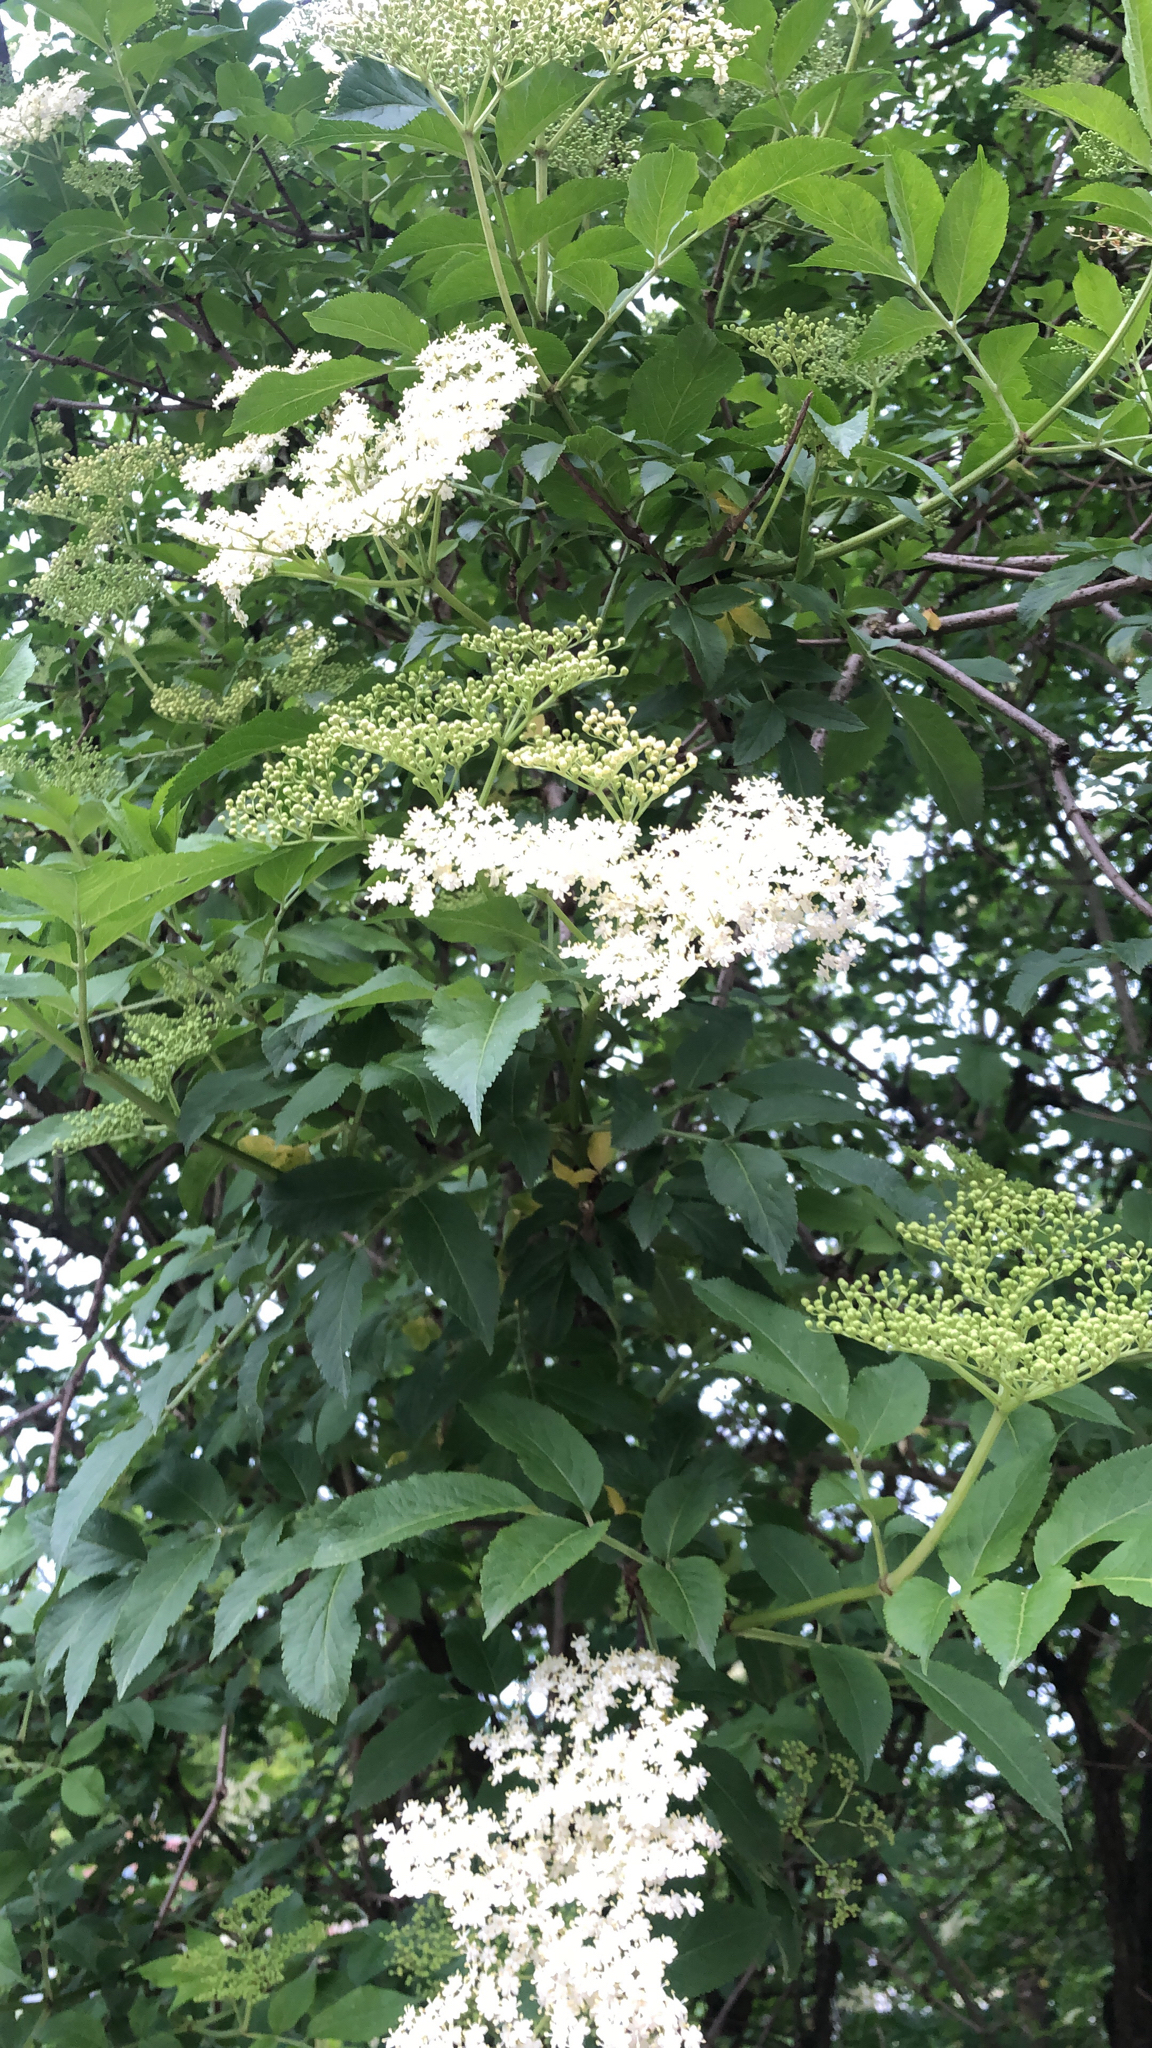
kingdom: Plantae
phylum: Tracheophyta
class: Magnoliopsida
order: Dipsacales
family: Viburnaceae
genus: Sambucus
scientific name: Sambucus nigra
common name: Elder
